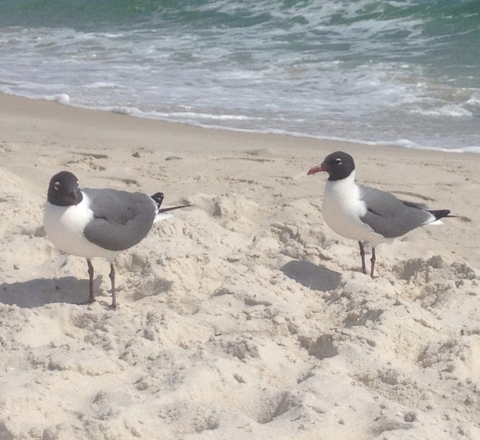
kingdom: Animalia
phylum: Chordata
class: Aves
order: Charadriiformes
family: Laridae
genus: Leucophaeus
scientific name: Leucophaeus atricilla
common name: Laughing gull
